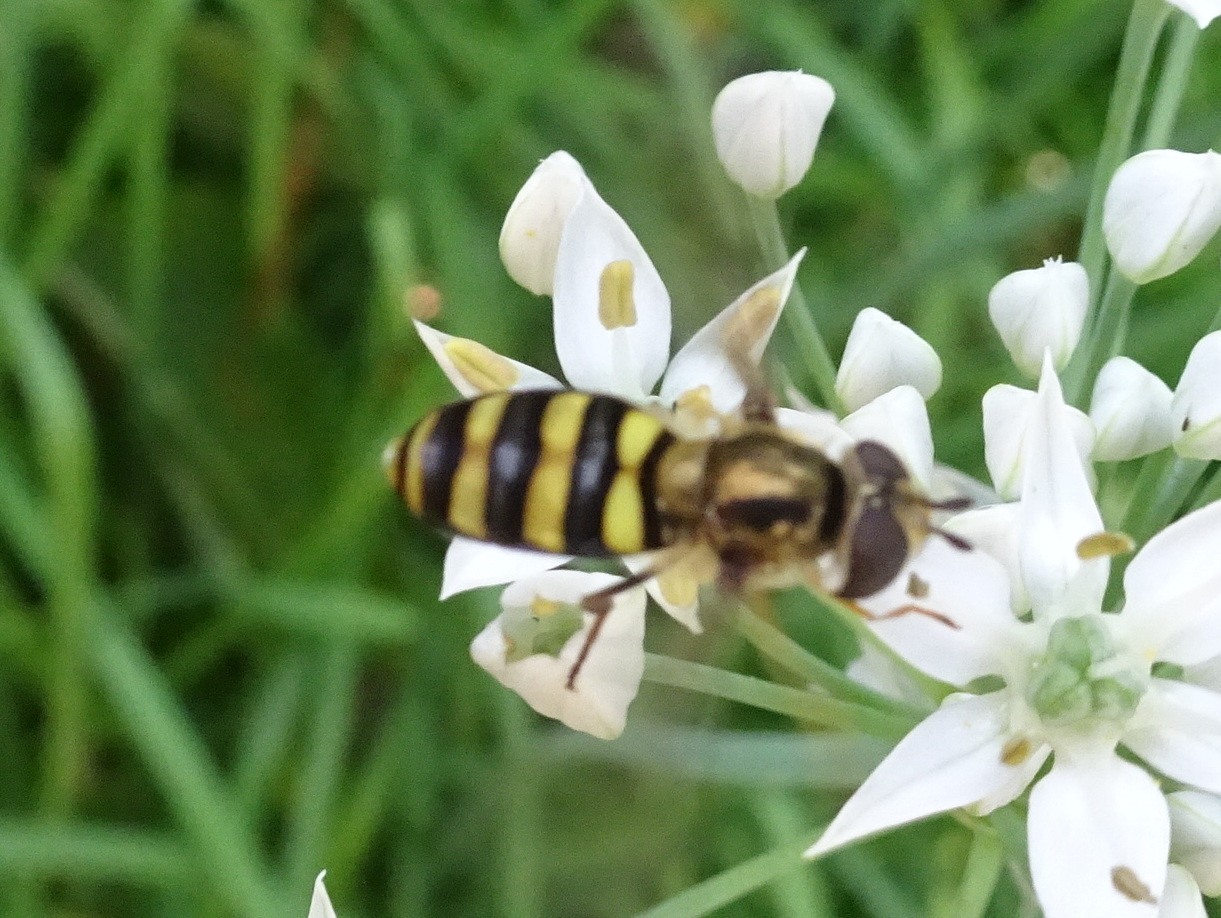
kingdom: Animalia
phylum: Arthropoda
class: Insecta
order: Diptera
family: Syrphidae
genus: Eupeodes
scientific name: Eupeodes
